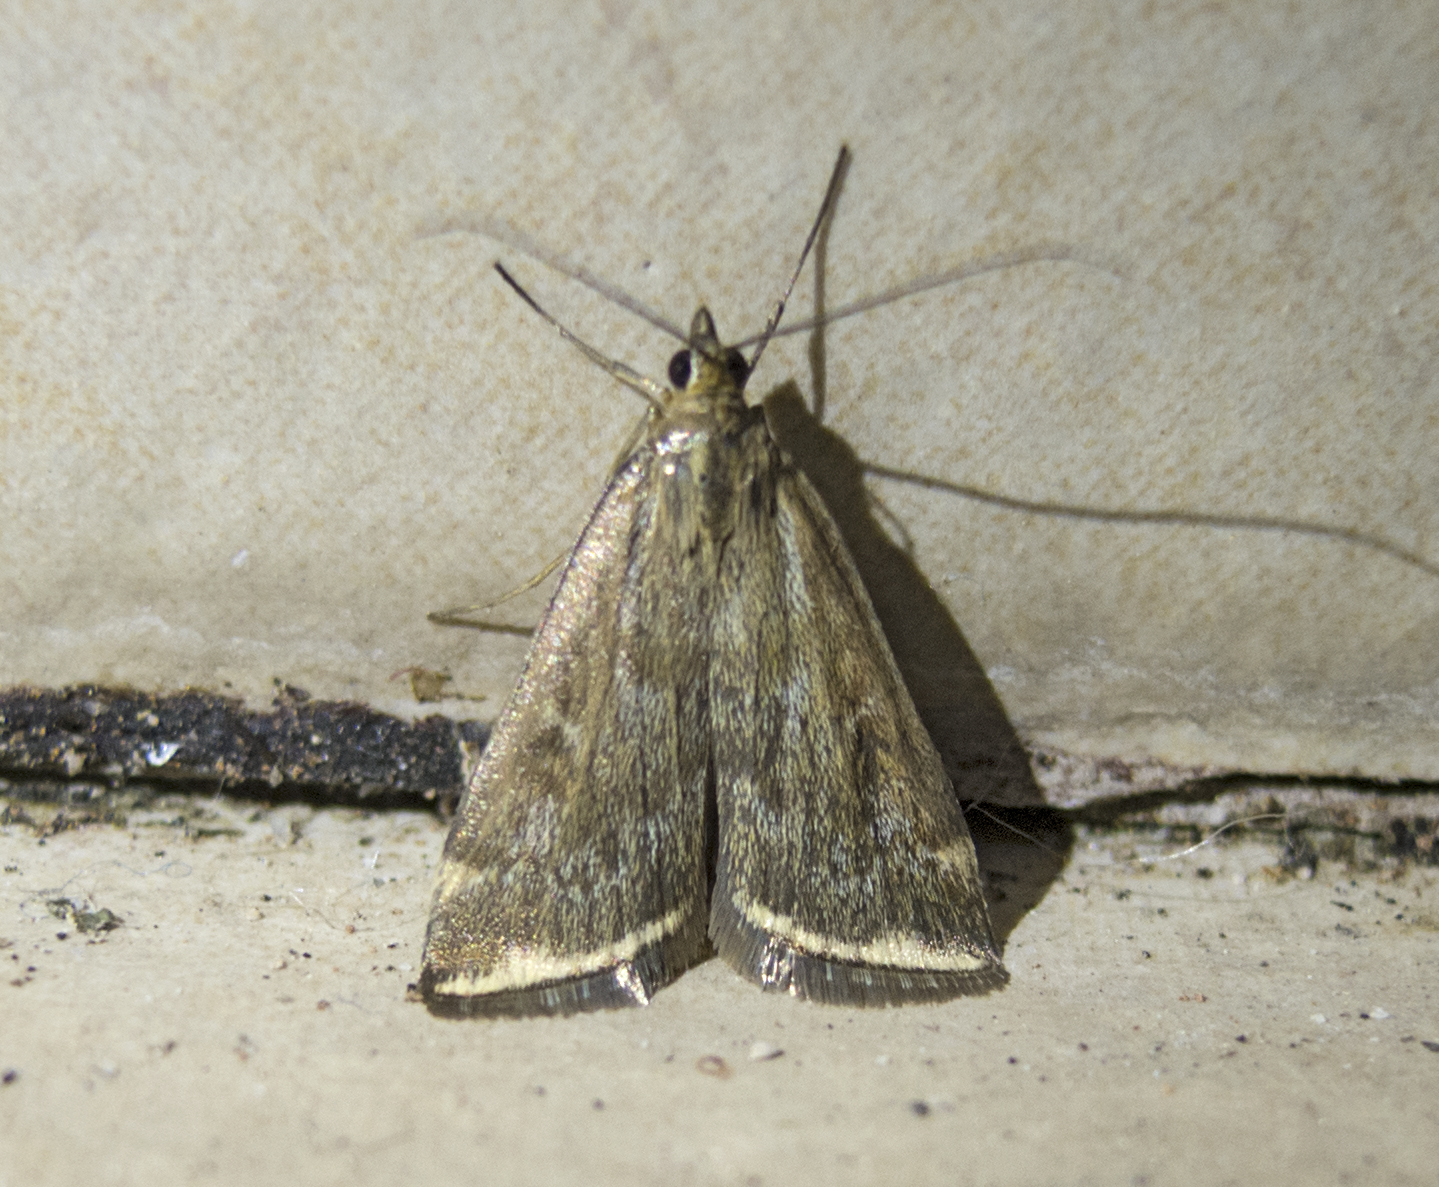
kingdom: Animalia
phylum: Arthropoda
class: Insecta
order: Lepidoptera
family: Crambidae
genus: Loxostege
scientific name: Loxostege sticticalis
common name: Crambid moth
